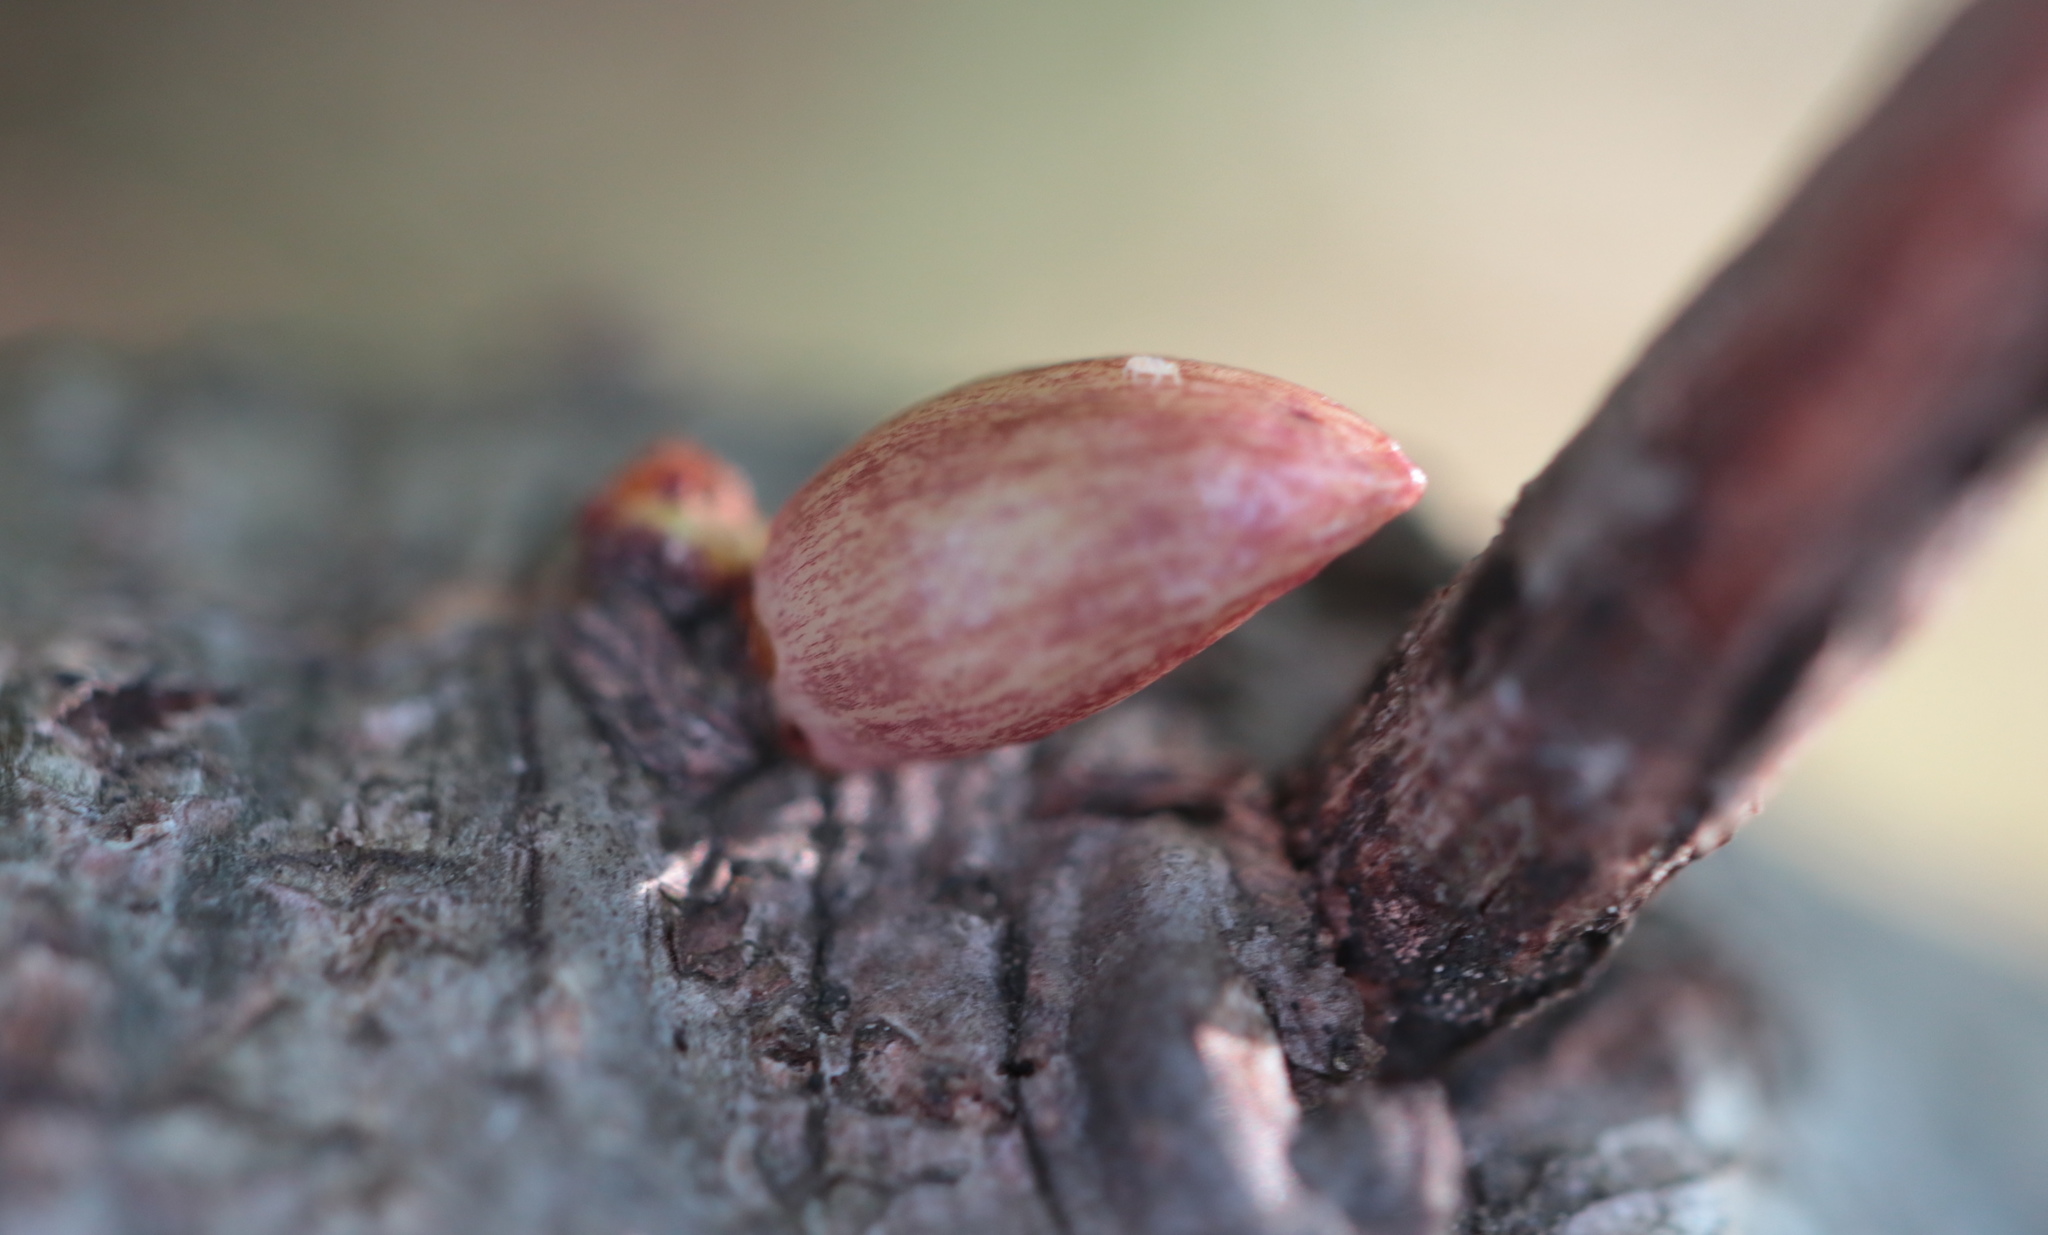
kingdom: Animalia
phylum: Arthropoda
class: Insecta
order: Hymenoptera
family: Cynipidae
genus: Andricus
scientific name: Andricus
